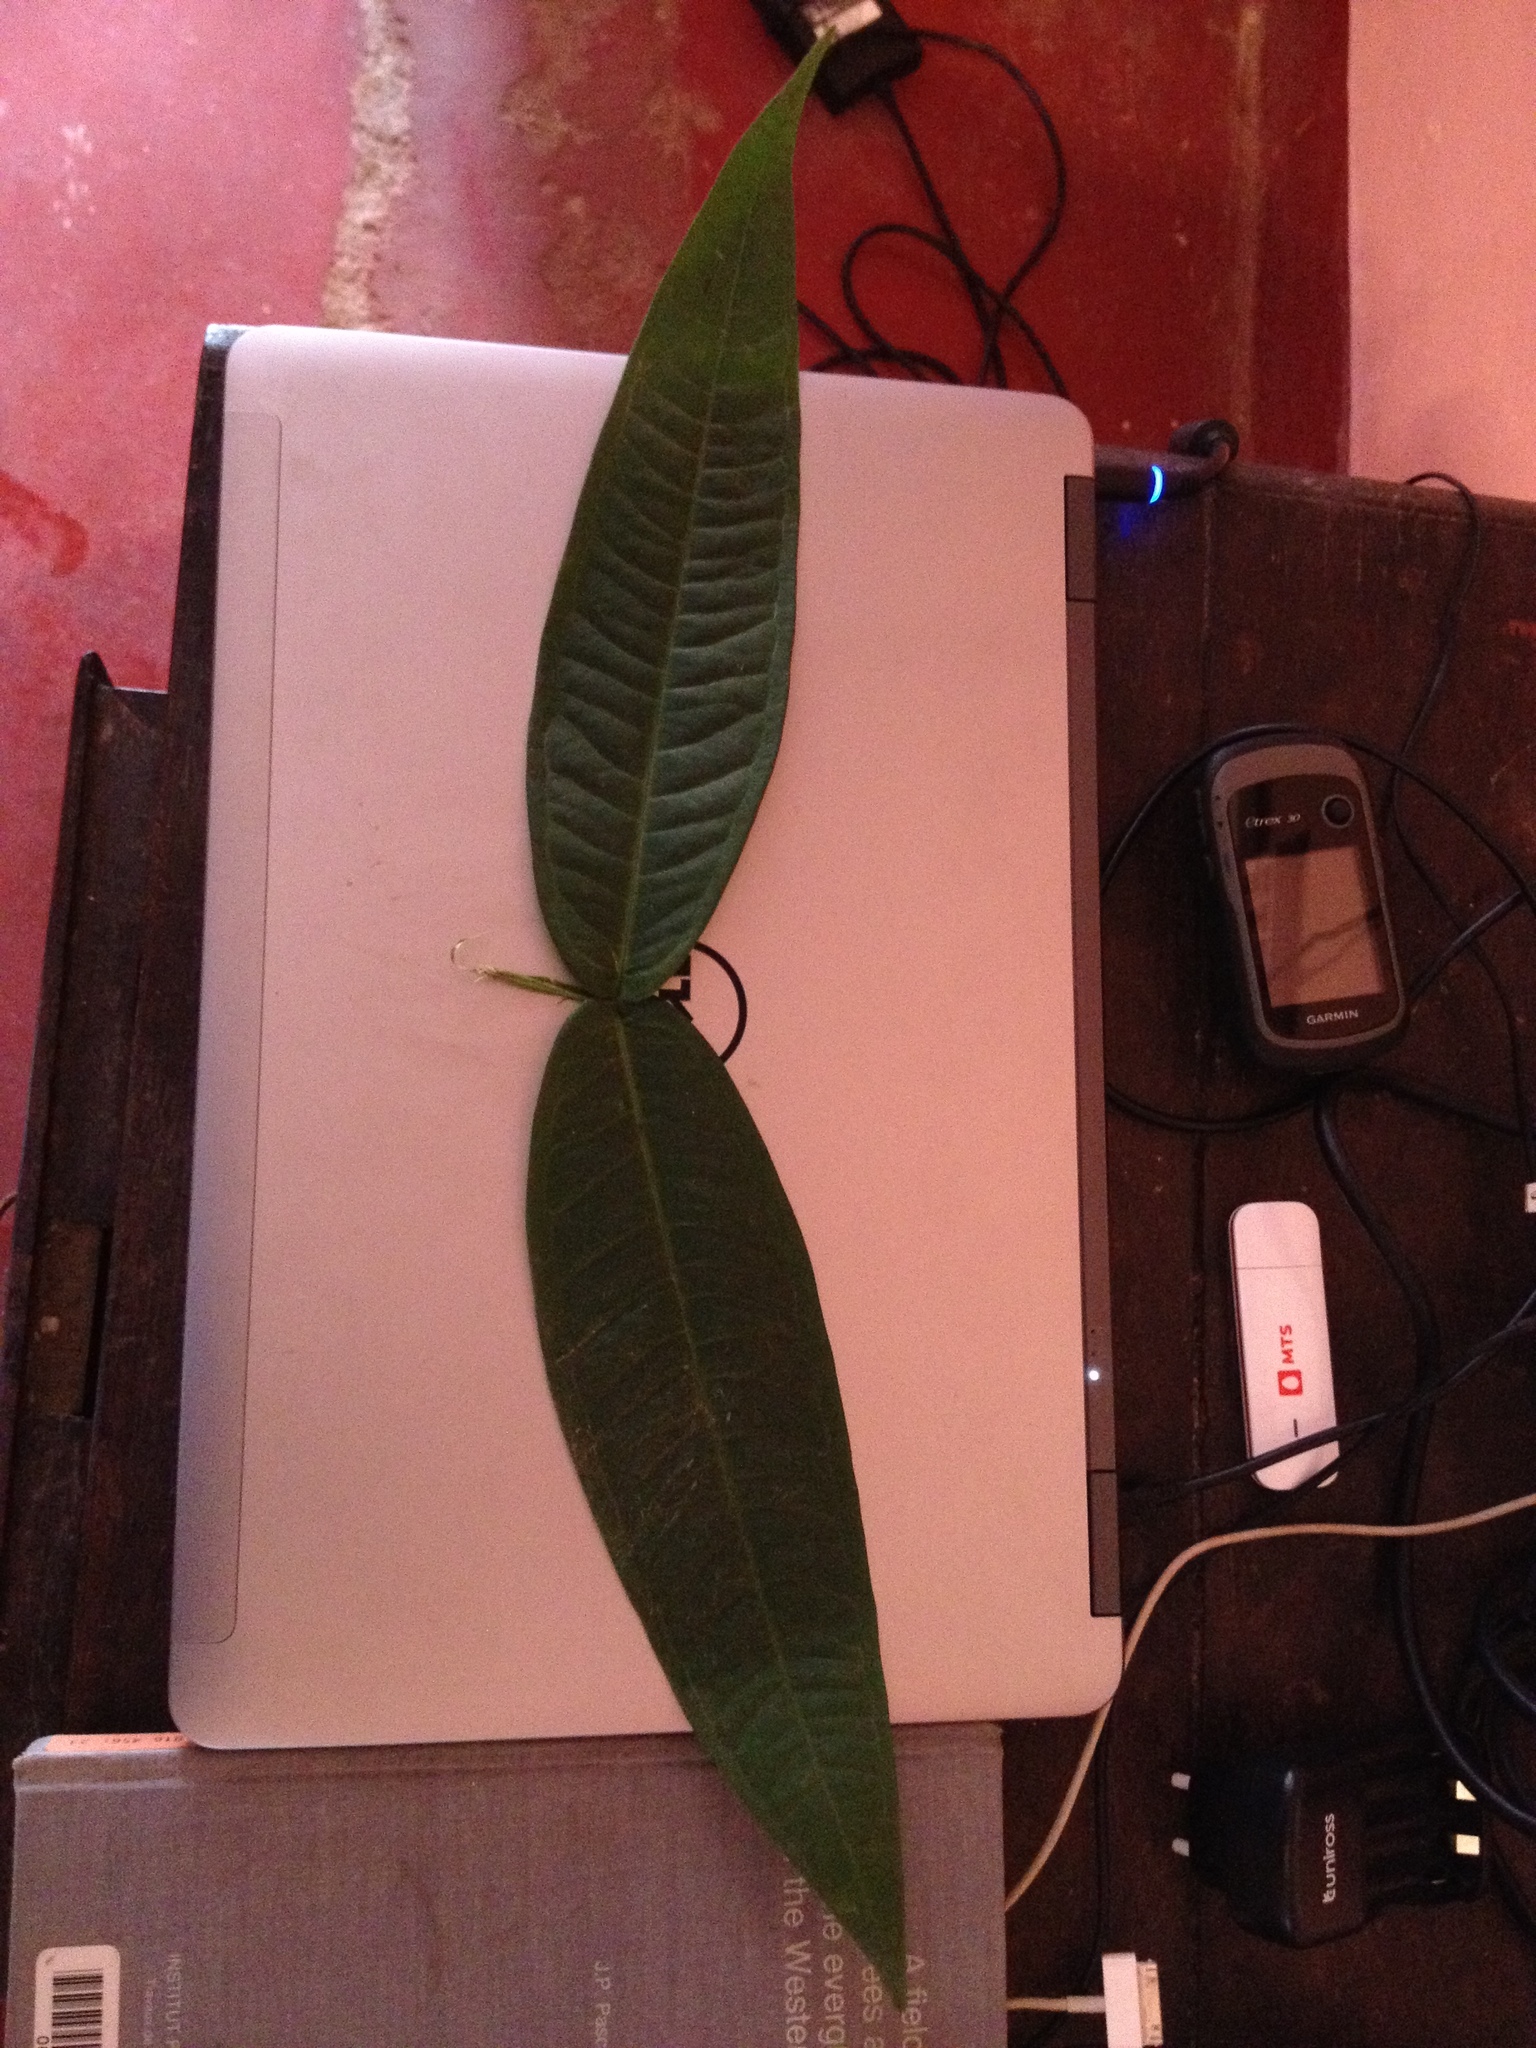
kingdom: Plantae
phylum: Tracheophyta
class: Magnoliopsida
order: Myrtales
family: Myrtaceae
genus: Syzygium
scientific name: Syzygium munronii
